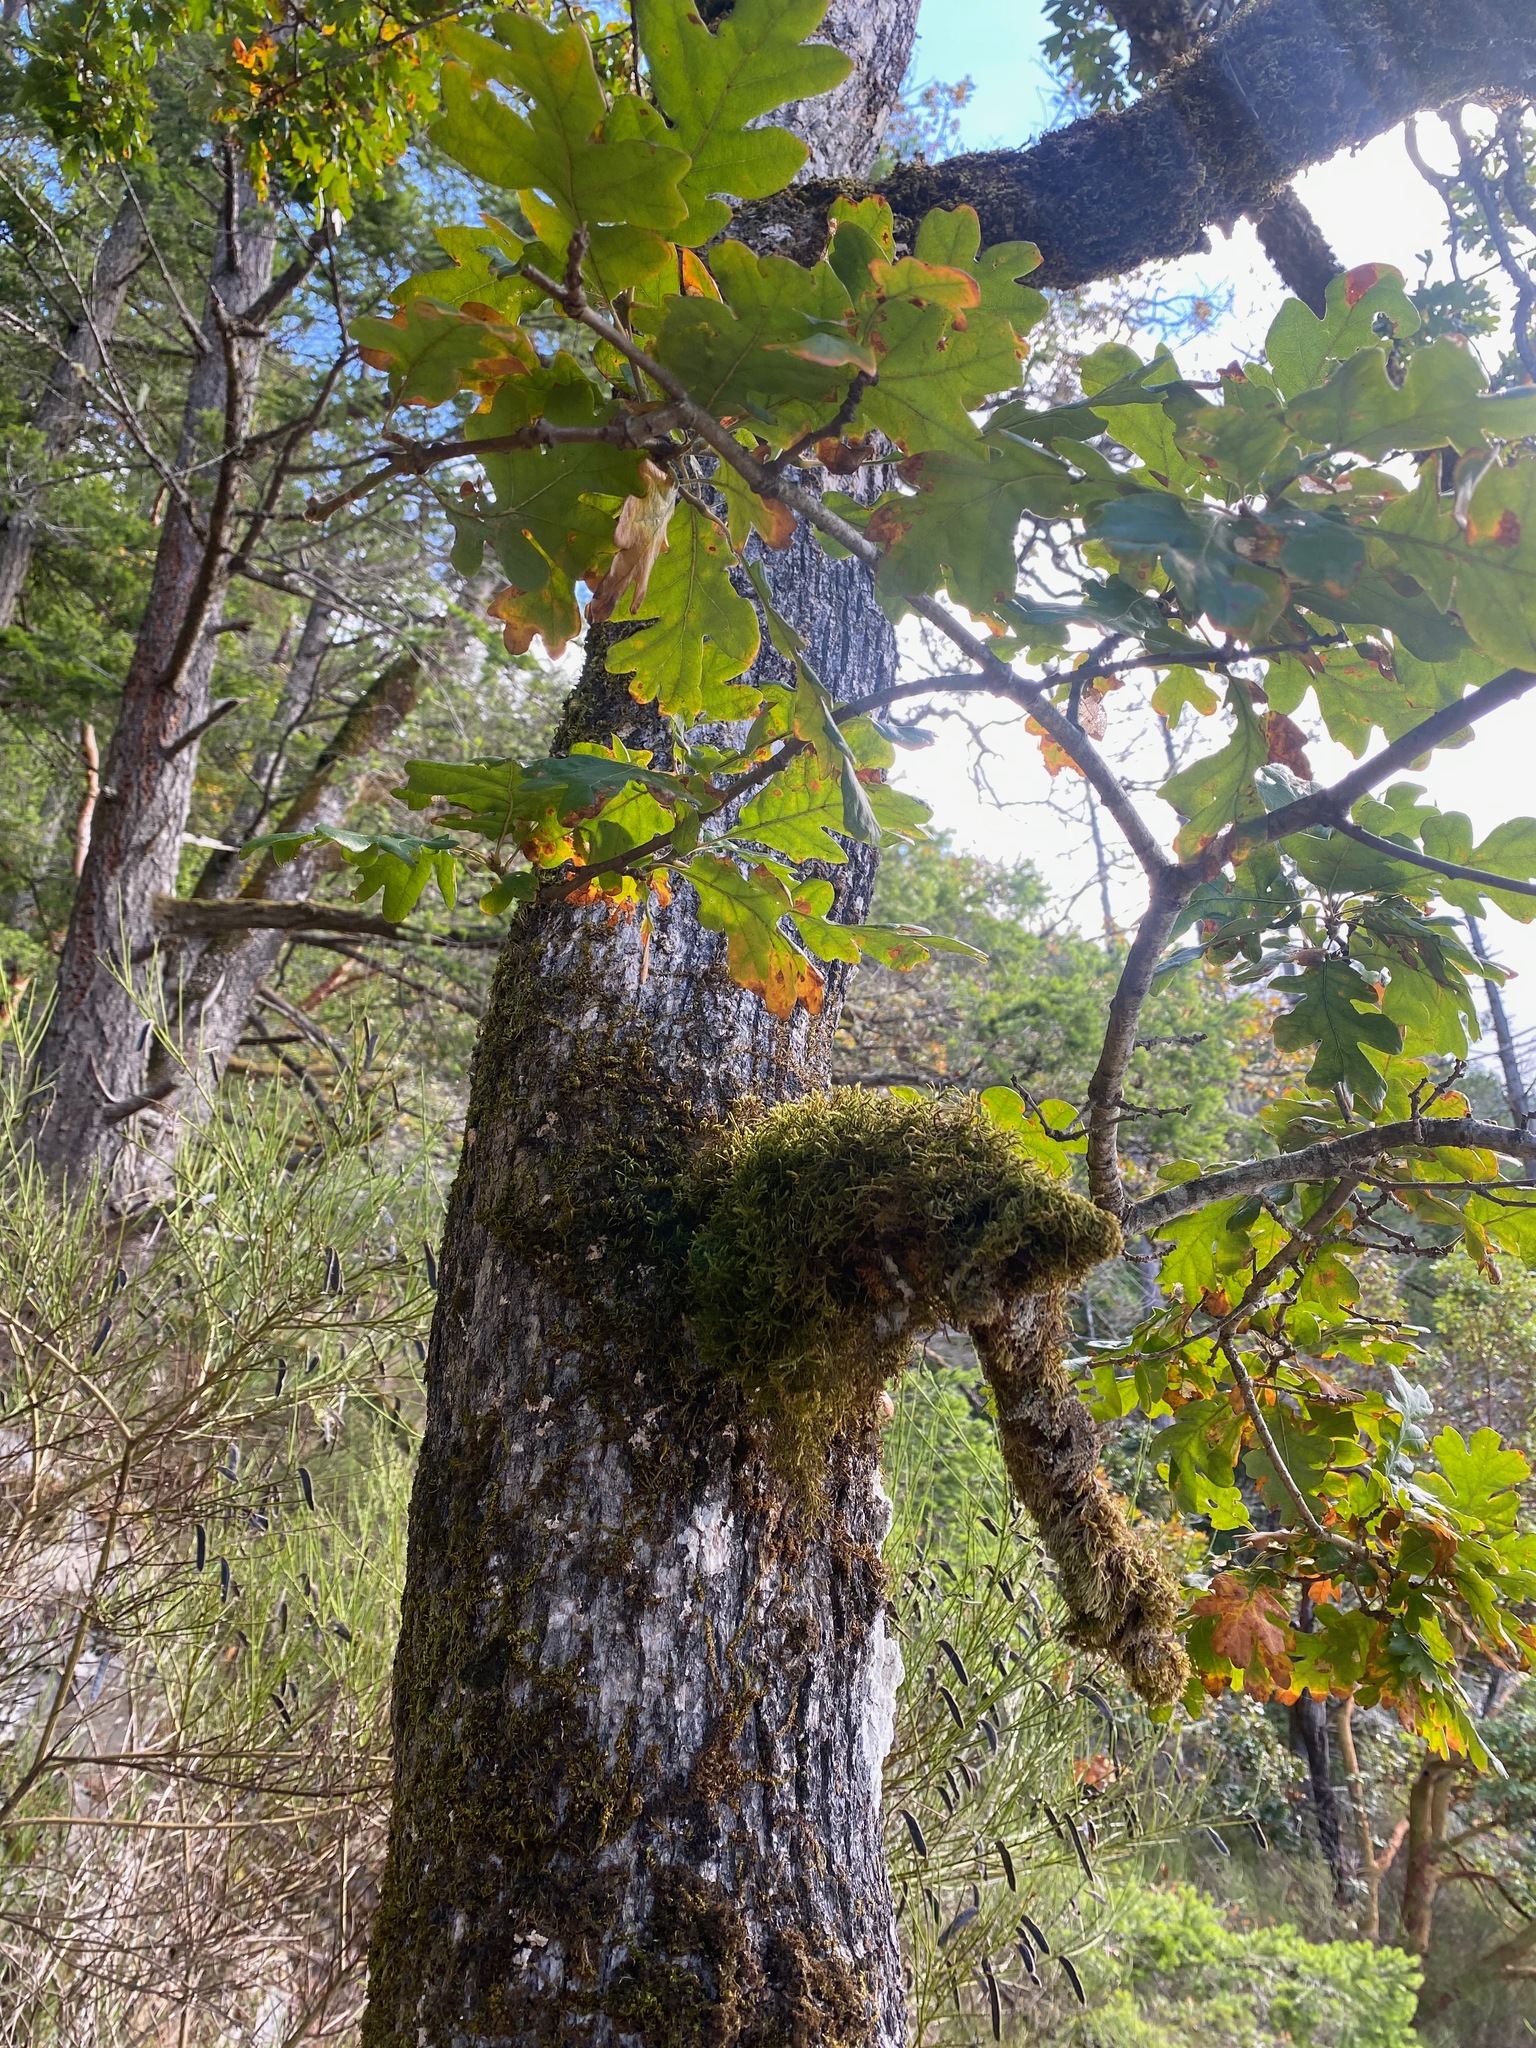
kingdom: Plantae
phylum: Tracheophyta
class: Magnoliopsida
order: Fagales
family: Fagaceae
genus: Quercus
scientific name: Quercus garryana
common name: Garry oak
